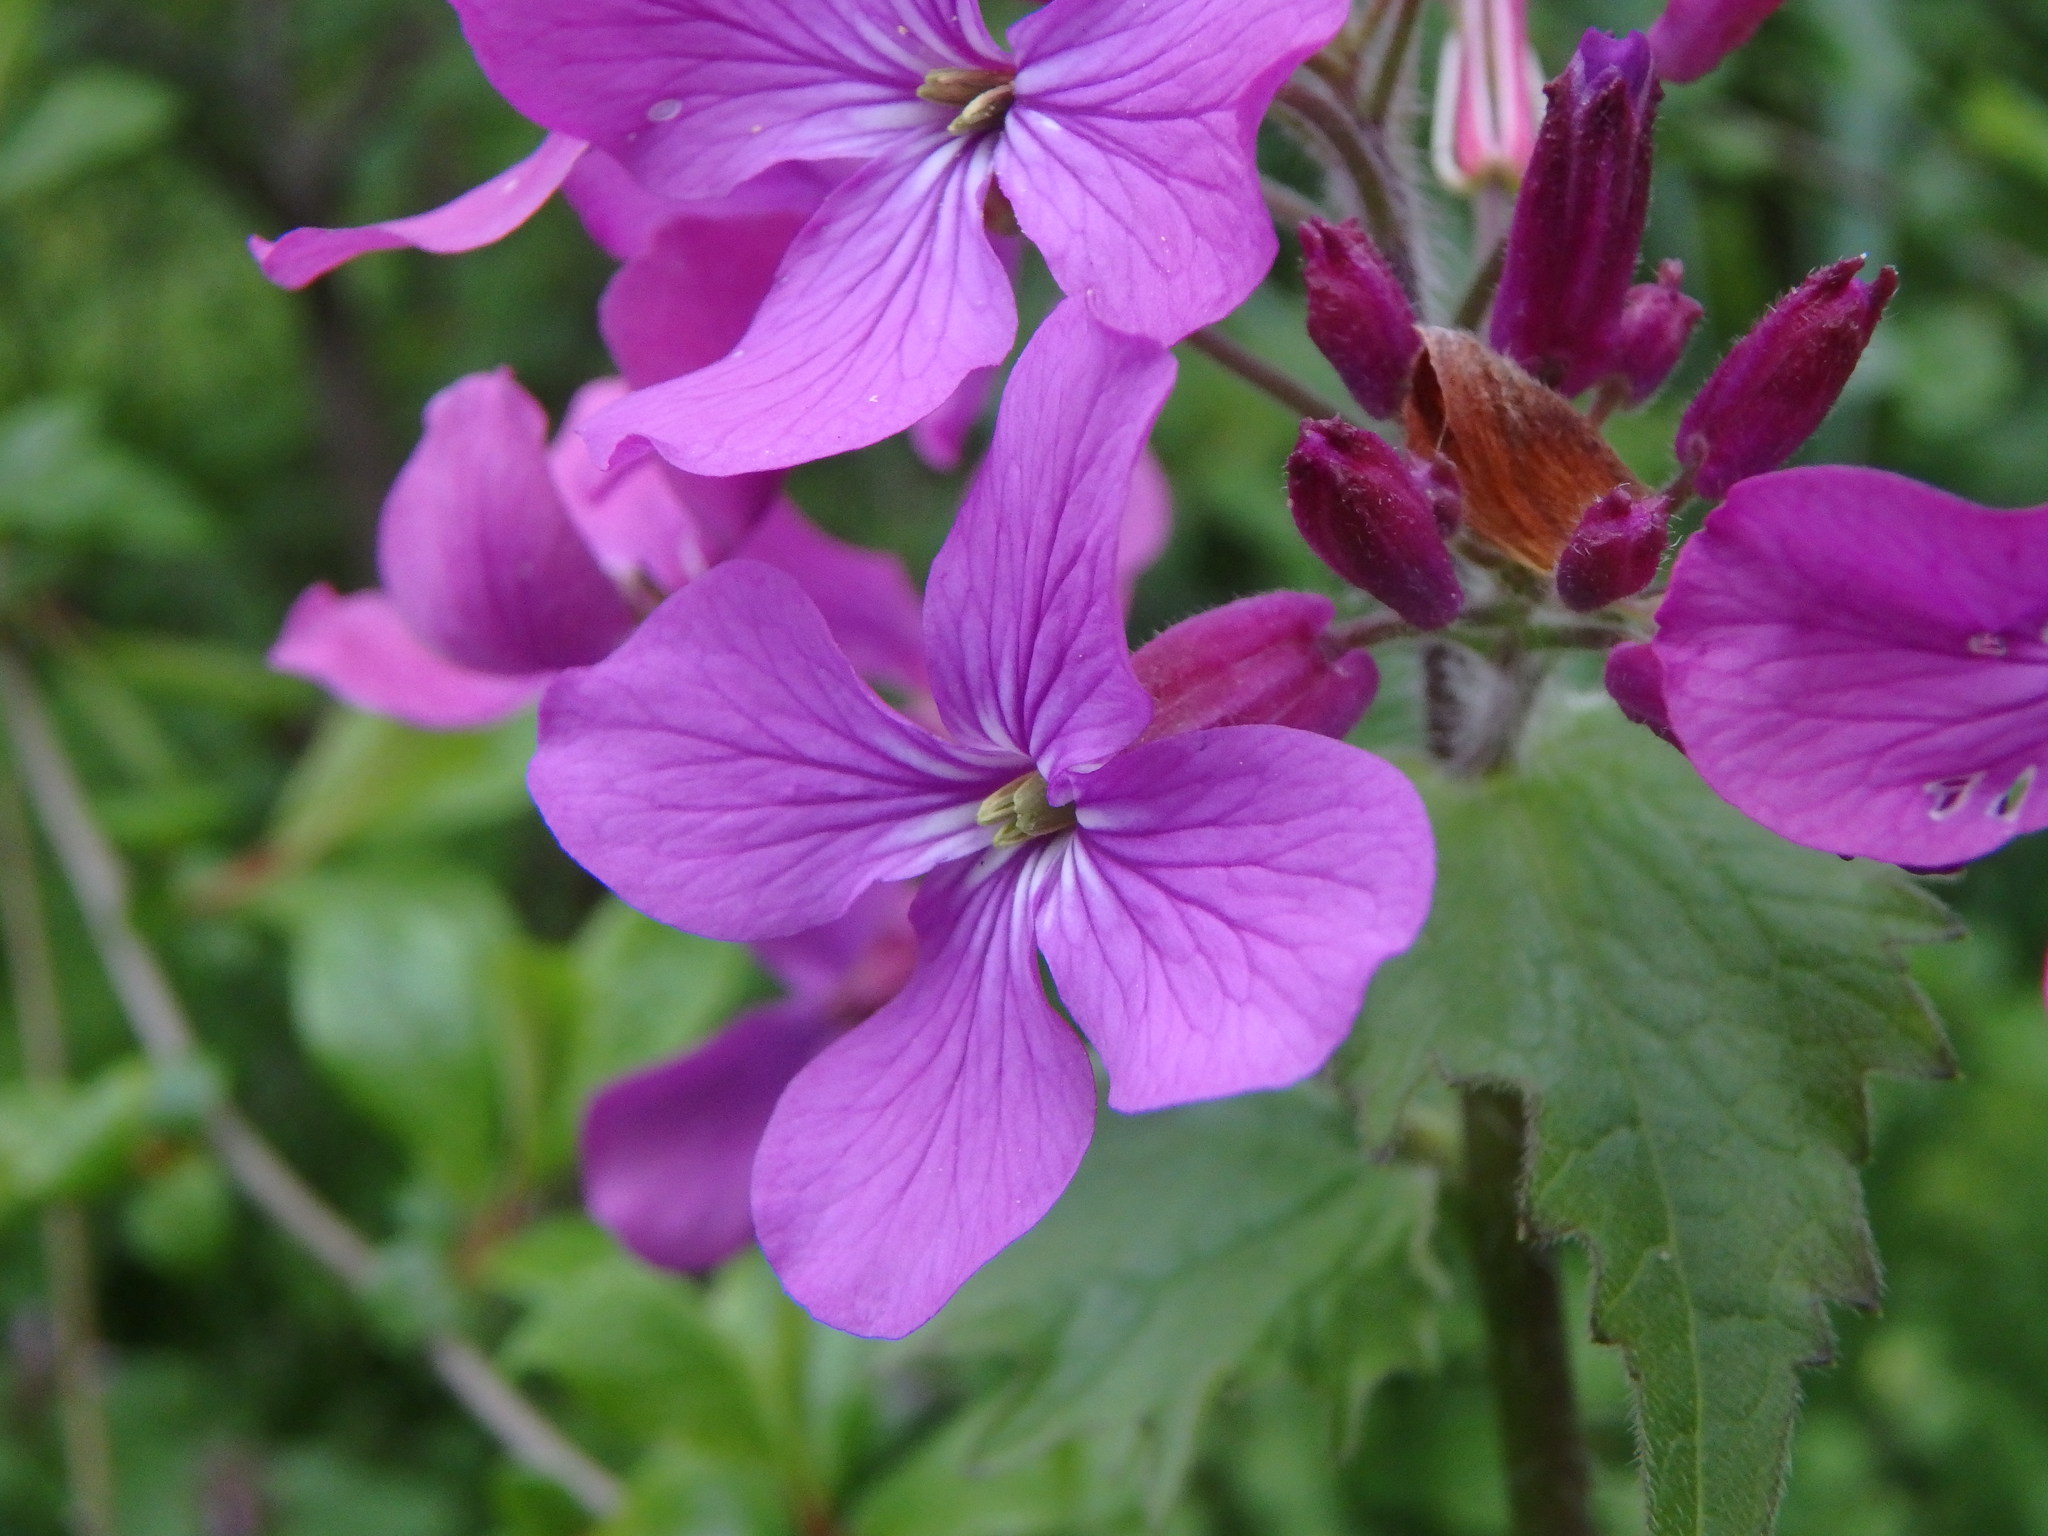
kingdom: Plantae
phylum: Tracheophyta
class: Magnoliopsida
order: Brassicales
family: Brassicaceae
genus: Lunaria
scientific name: Lunaria annua
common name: Honesty
